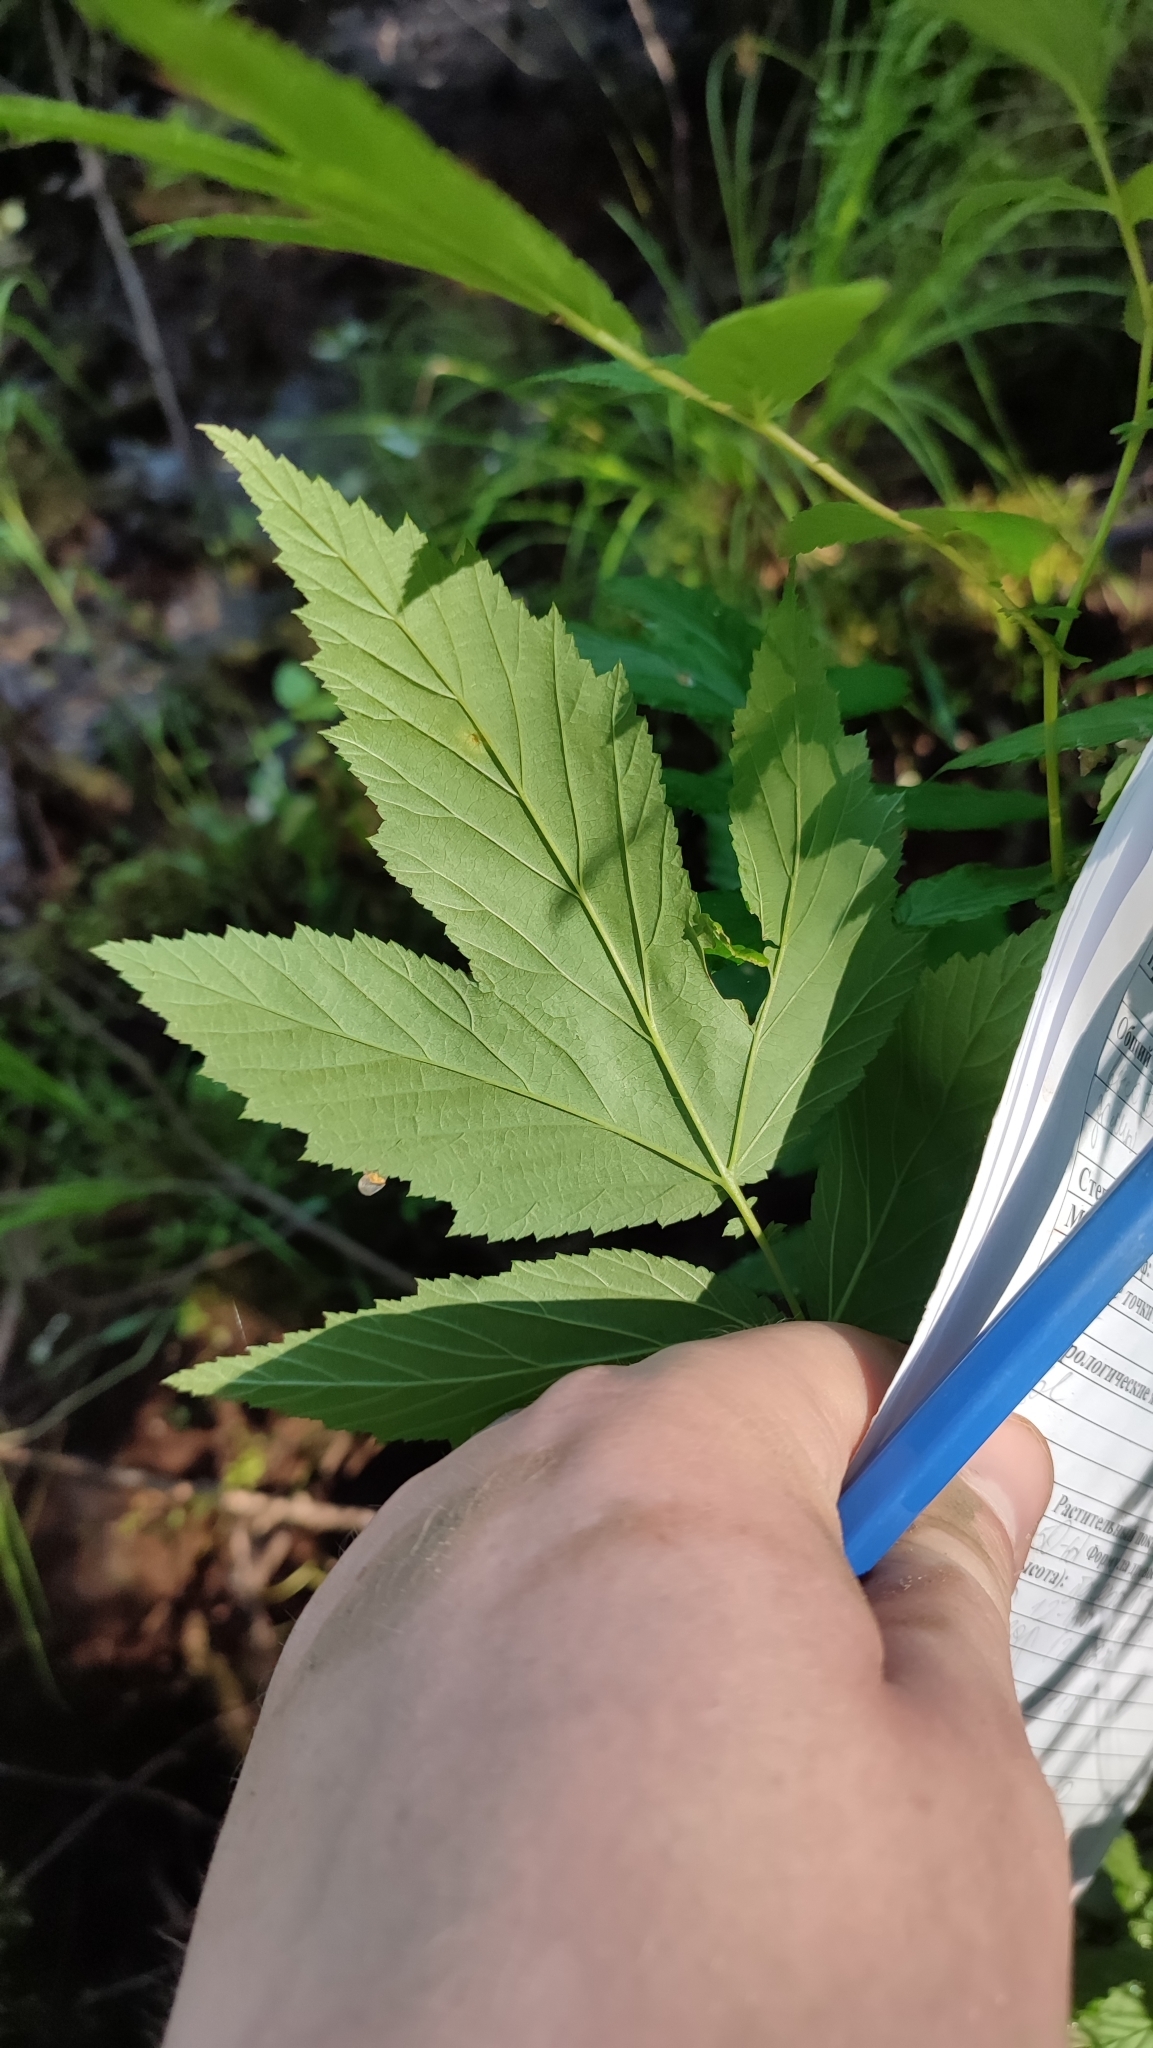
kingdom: Plantae
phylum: Tracheophyta
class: Magnoliopsida
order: Rosales
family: Rosaceae
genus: Filipendula
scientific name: Filipendula ulmaria
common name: Meadowsweet
